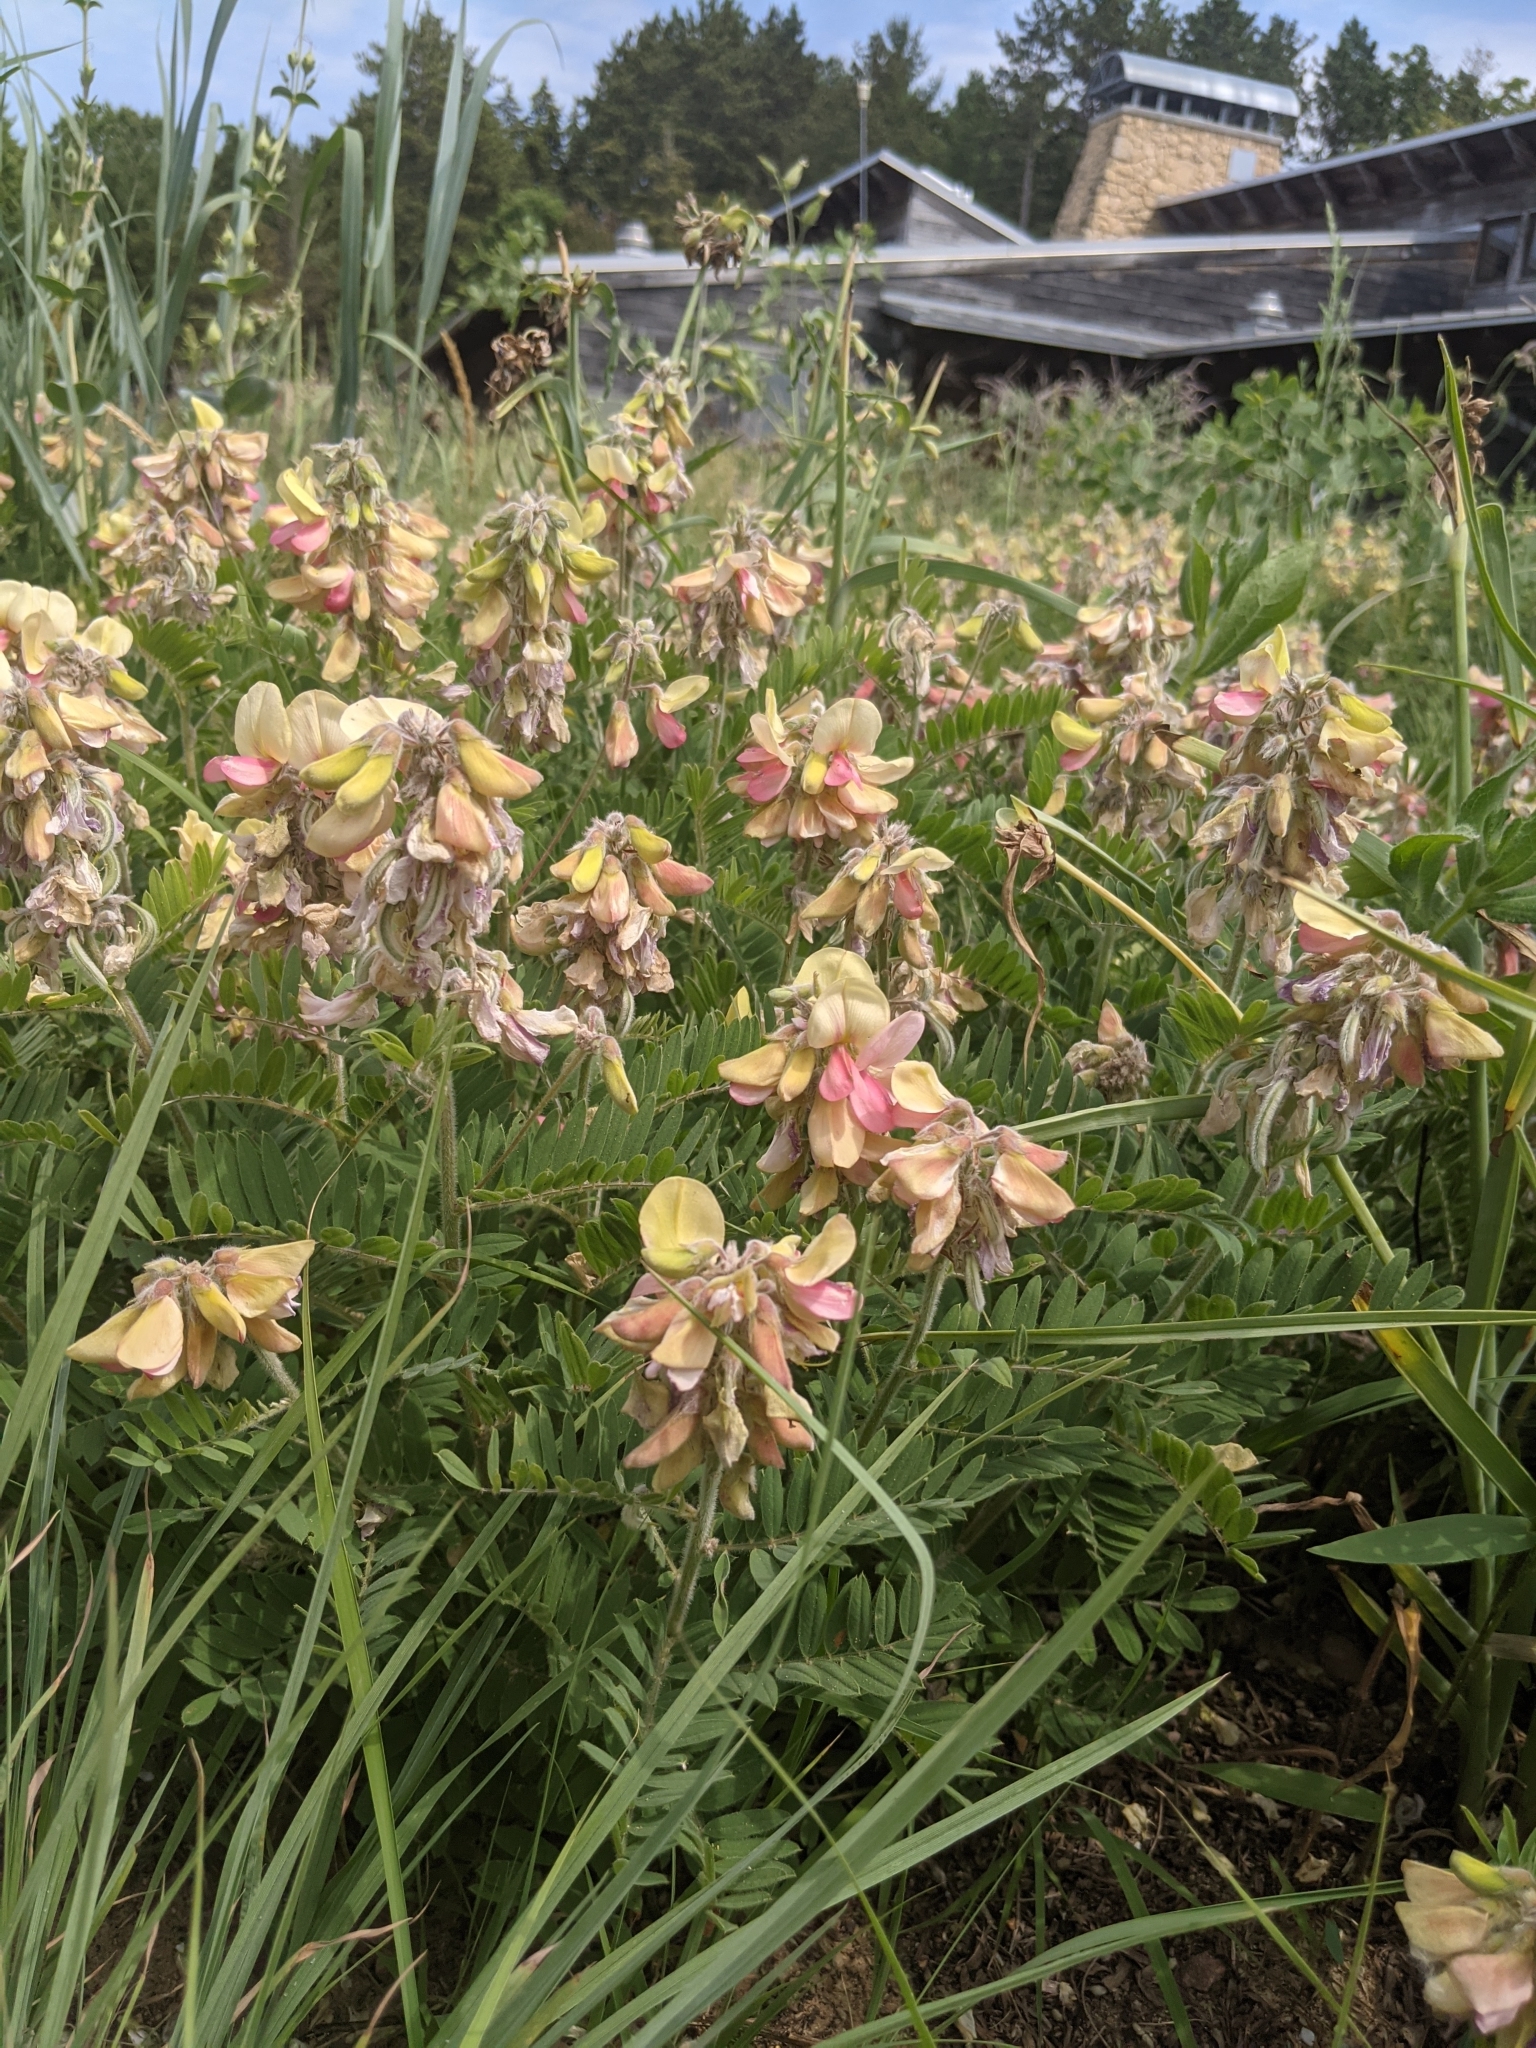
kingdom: Plantae
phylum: Tracheophyta
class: Magnoliopsida
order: Fabales
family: Fabaceae
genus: Tephrosia
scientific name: Tephrosia virginiana
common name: Rabbit-pea
